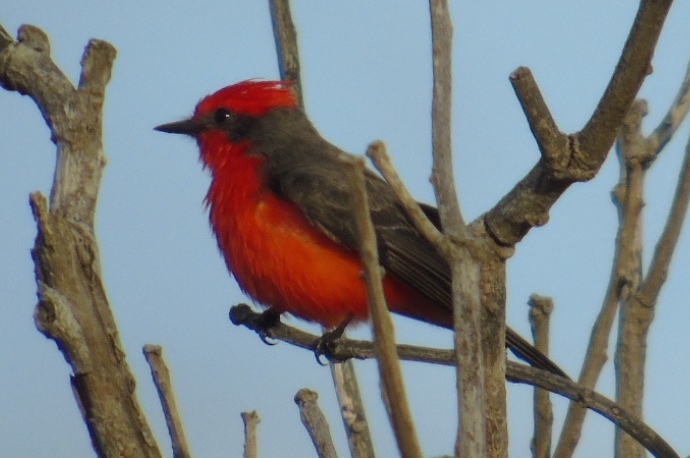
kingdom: Animalia
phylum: Chordata
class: Aves
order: Passeriformes
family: Tyrannidae
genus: Pyrocephalus
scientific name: Pyrocephalus rubinus
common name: Vermilion flycatcher
